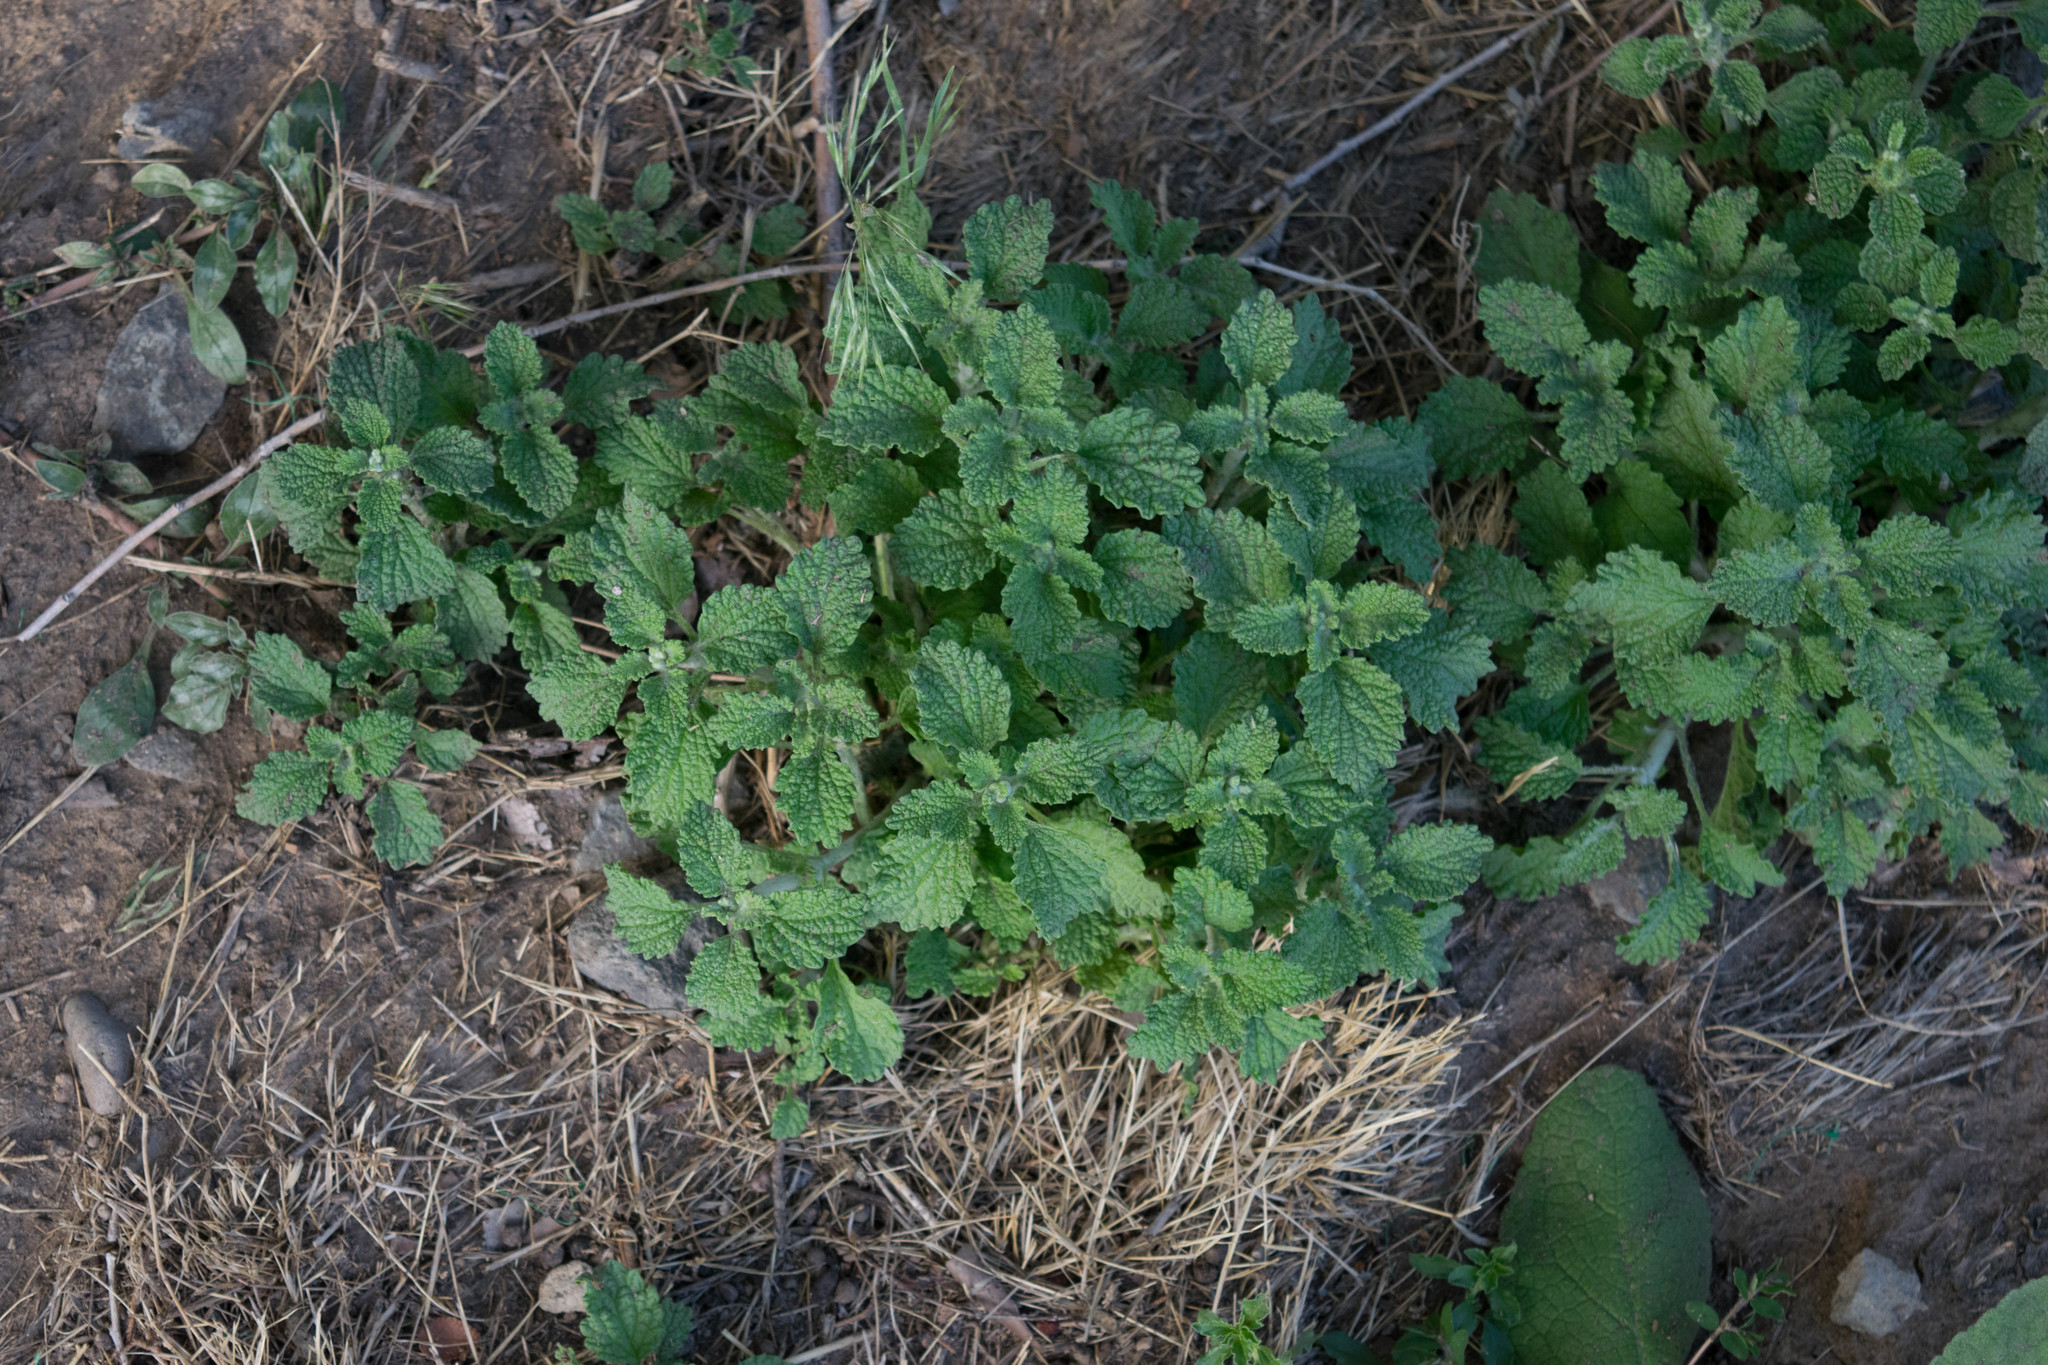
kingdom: Plantae
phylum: Tracheophyta
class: Magnoliopsida
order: Lamiales
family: Lamiaceae
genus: Marrubium
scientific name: Marrubium vulgare
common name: Horehound
